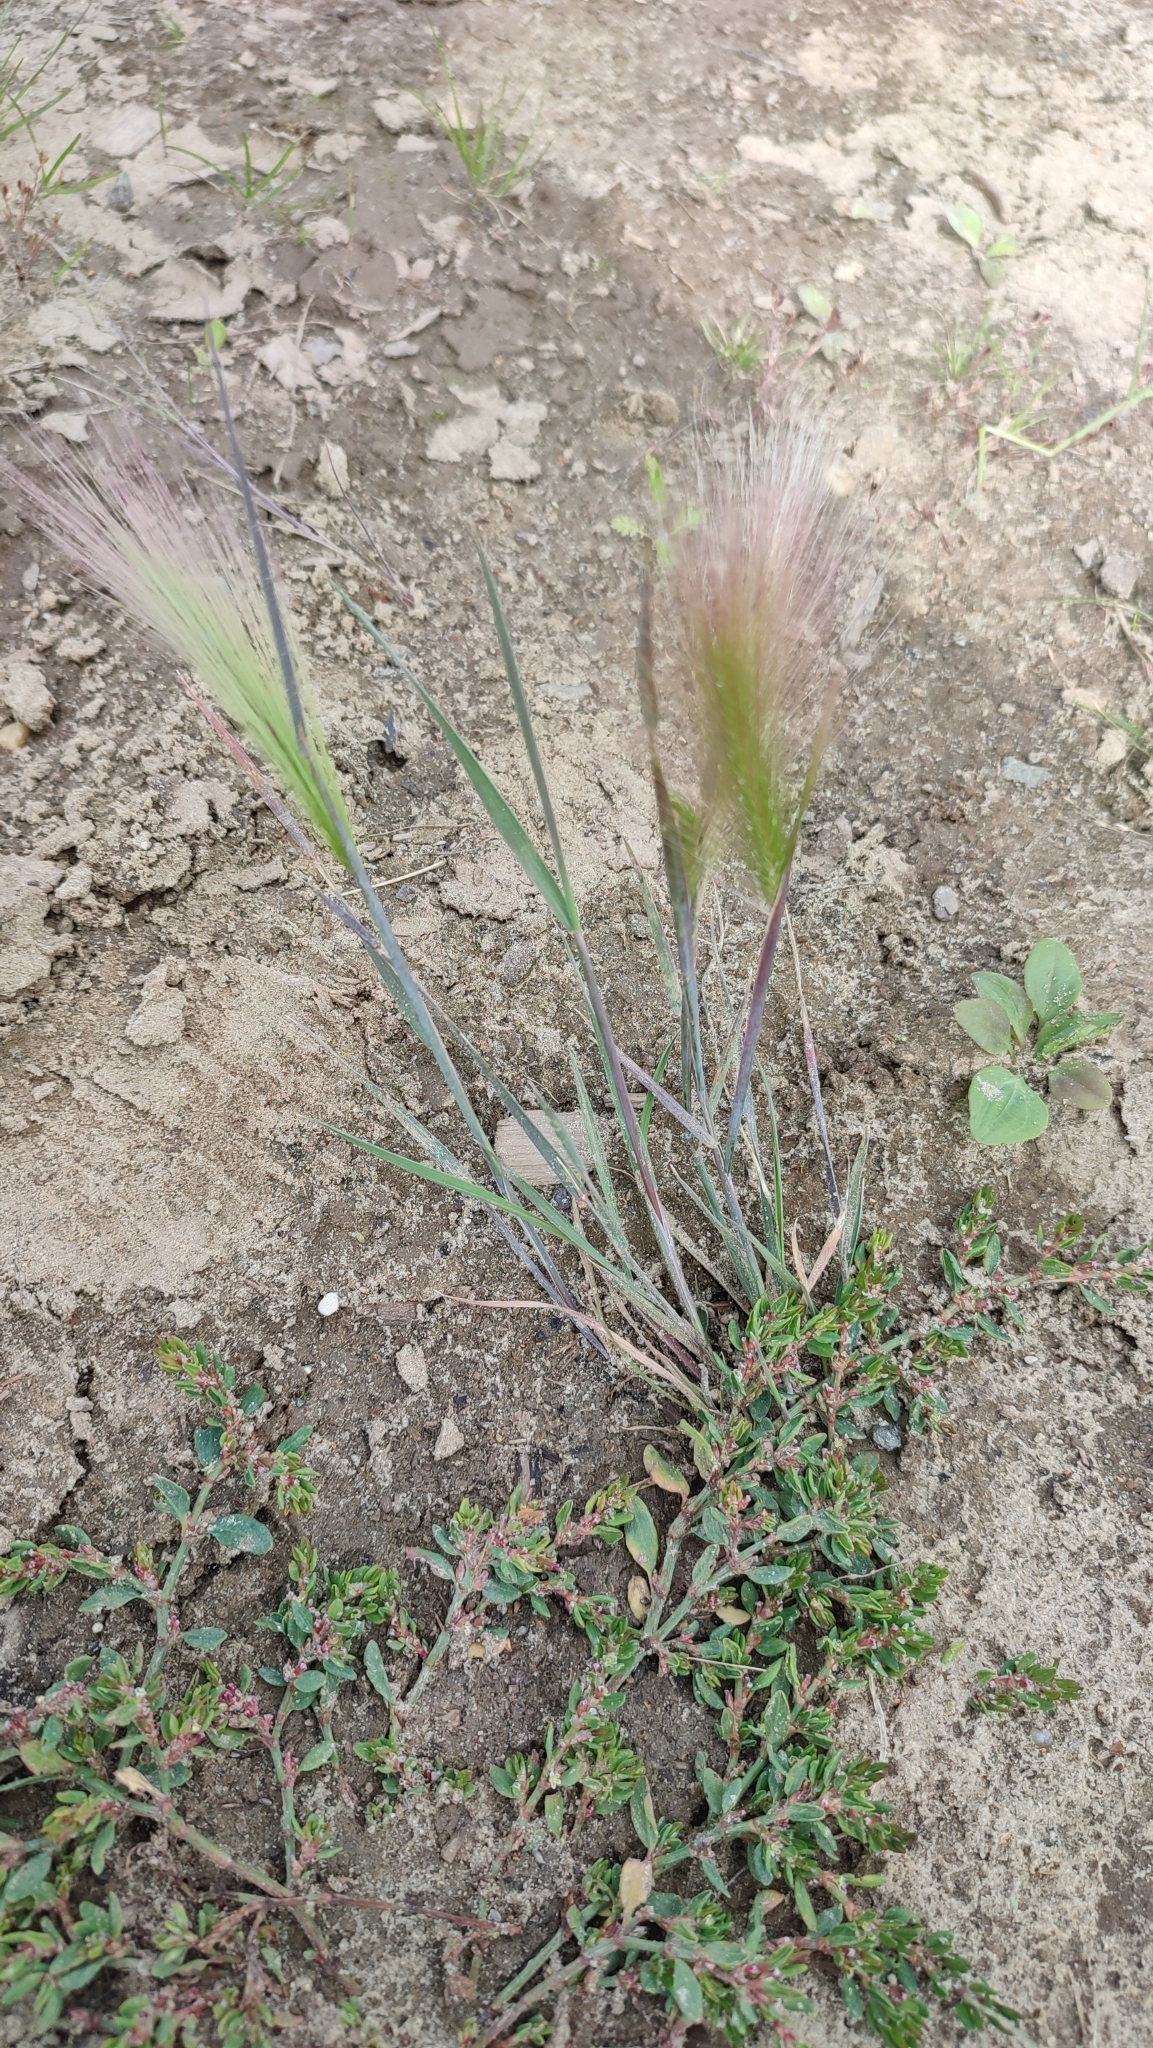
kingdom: Plantae
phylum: Tracheophyta
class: Liliopsida
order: Poales
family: Poaceae
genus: Hordeum
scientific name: Hordeum jubatum
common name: Foxtail barley
